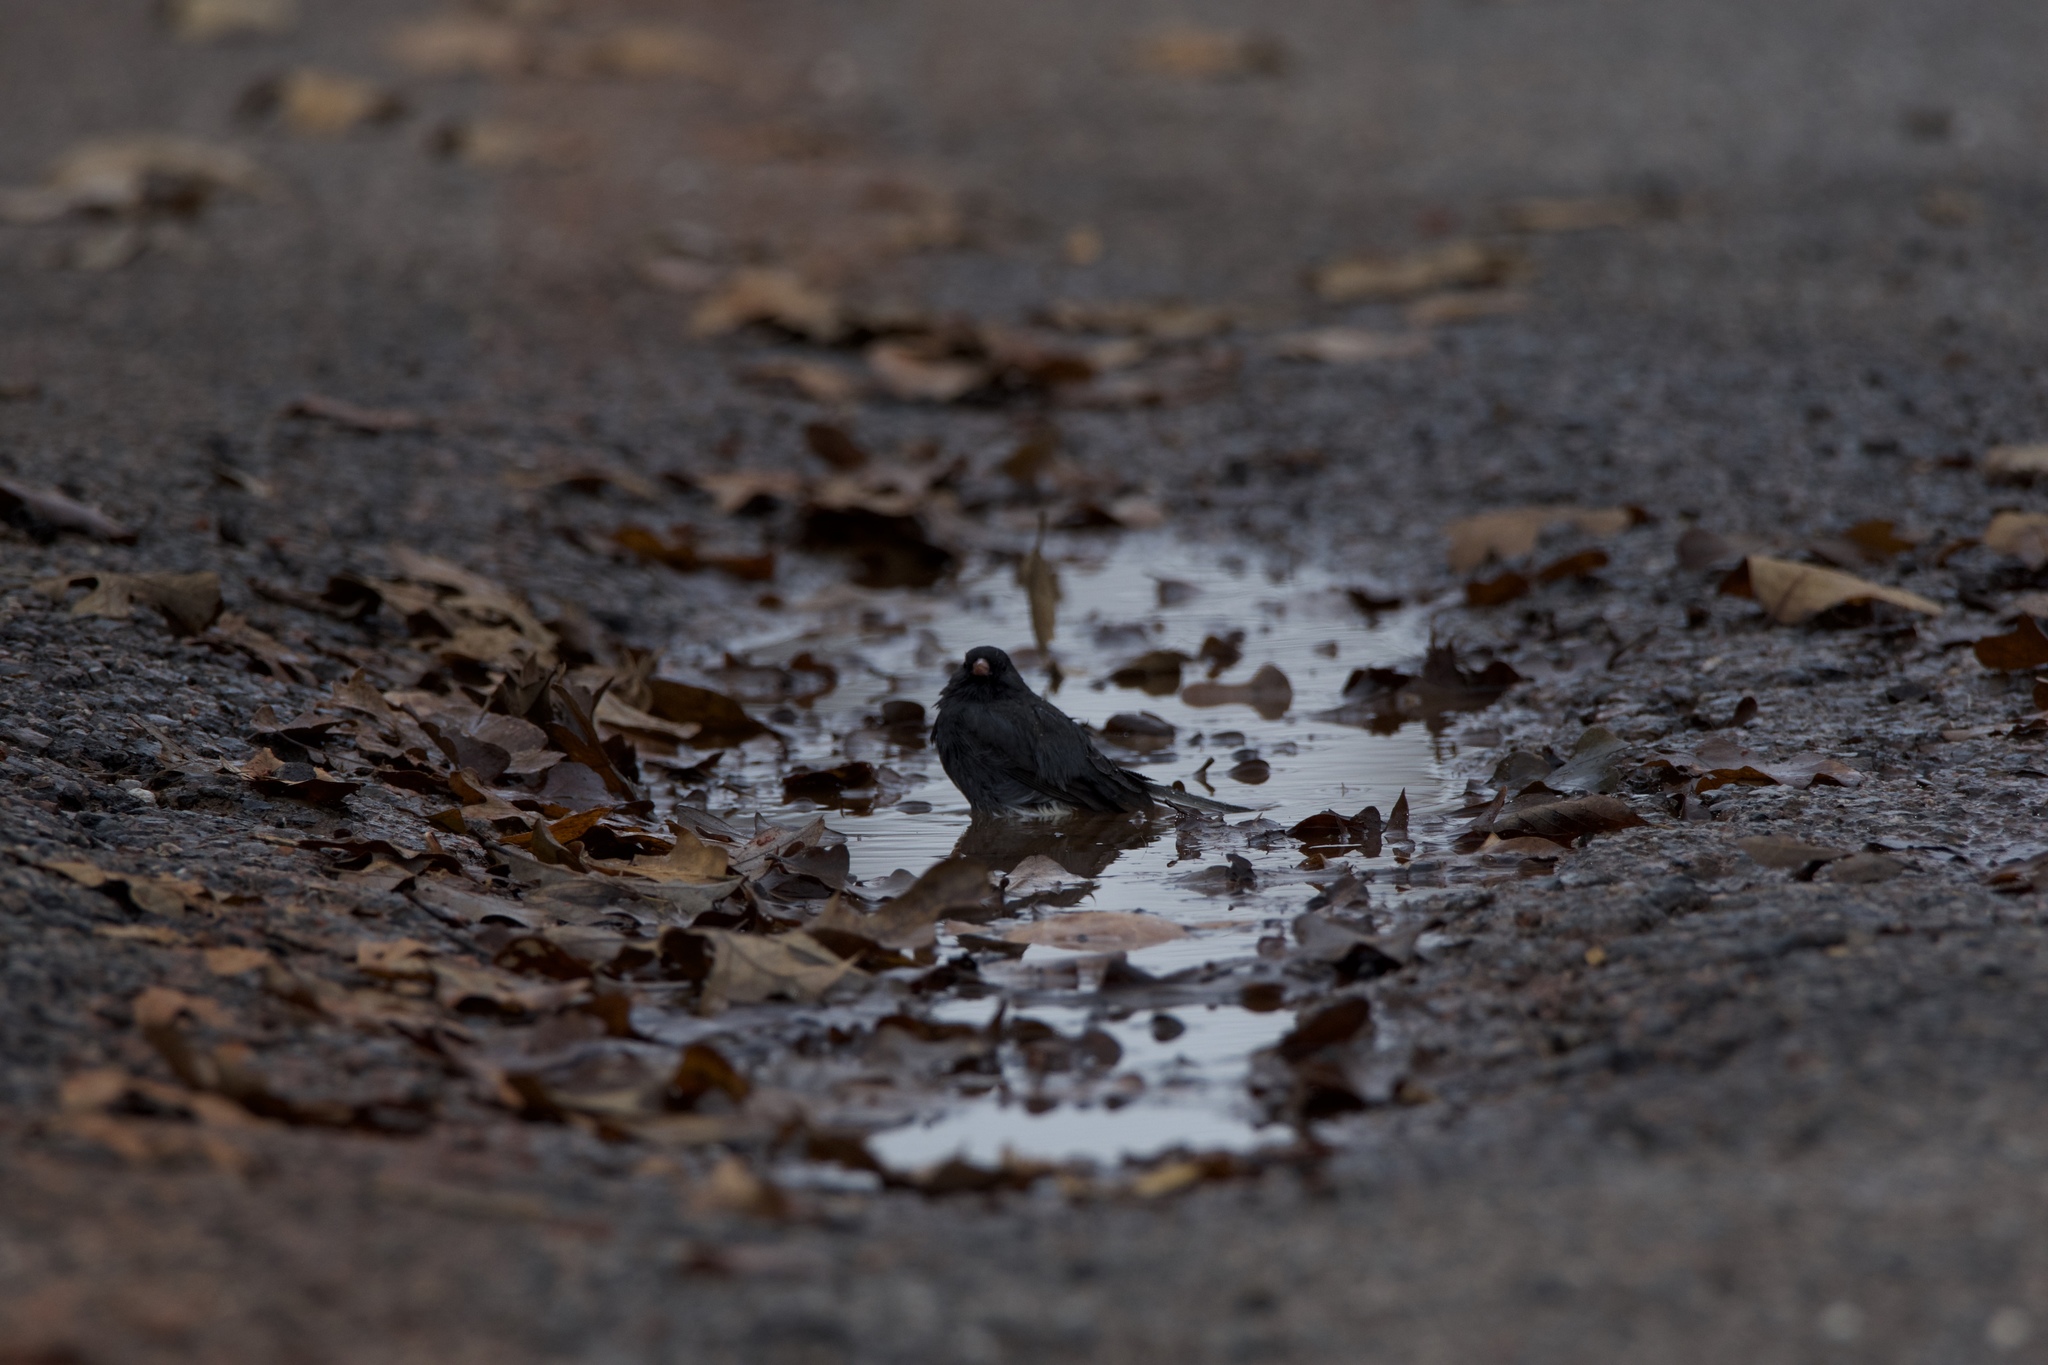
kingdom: Animalia
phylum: Chordata
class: Aves
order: Passeriformes
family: Passerellidae
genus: Junco
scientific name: Junco hyemalis
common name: Dark-eyed junco
